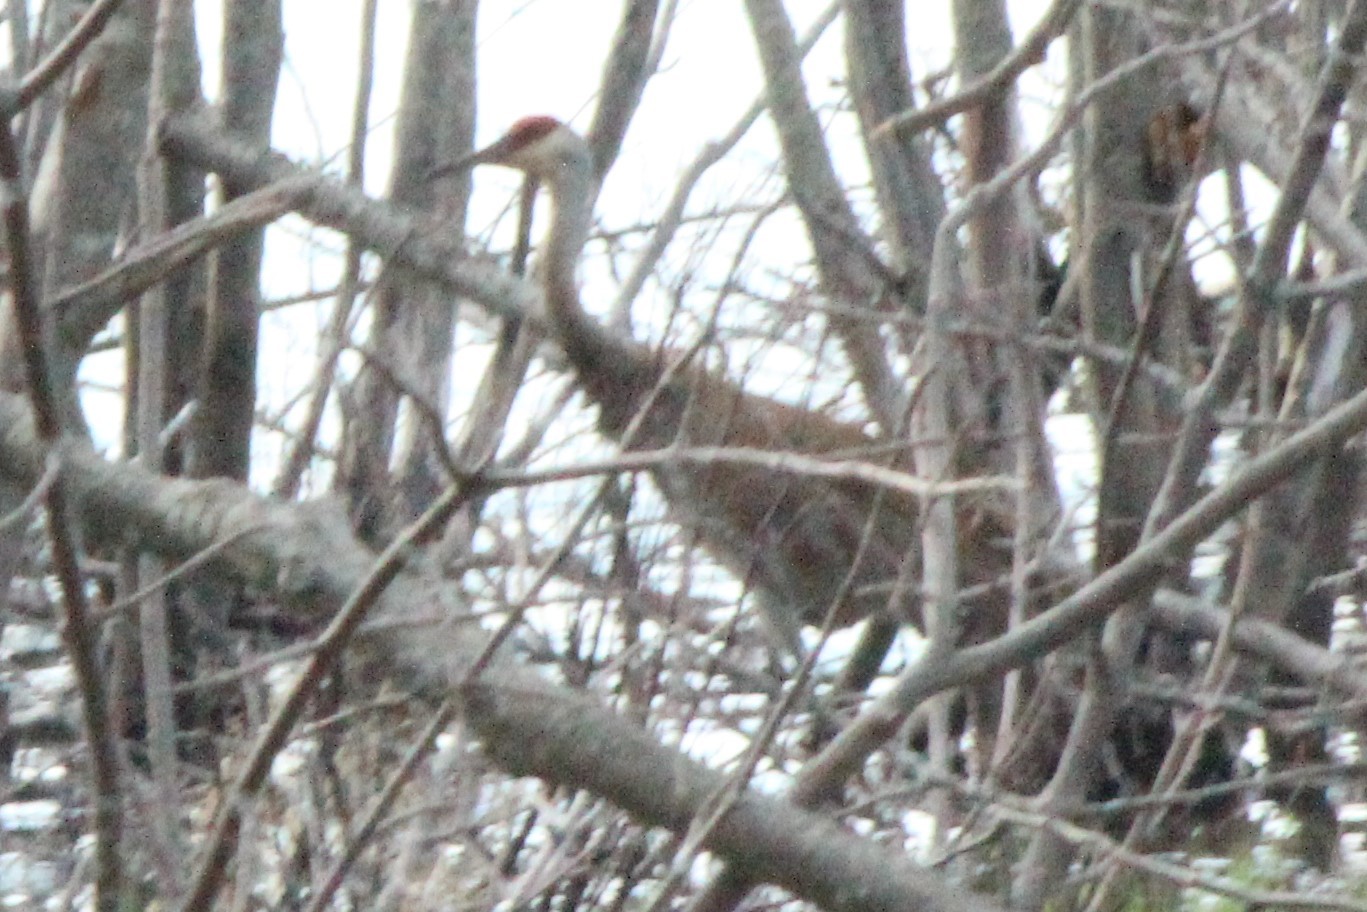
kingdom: Animalia
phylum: Chordata
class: Aves
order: Gruiformes
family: Gruidae
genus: Grus
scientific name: Grus canadensis
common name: Sandhill crane
